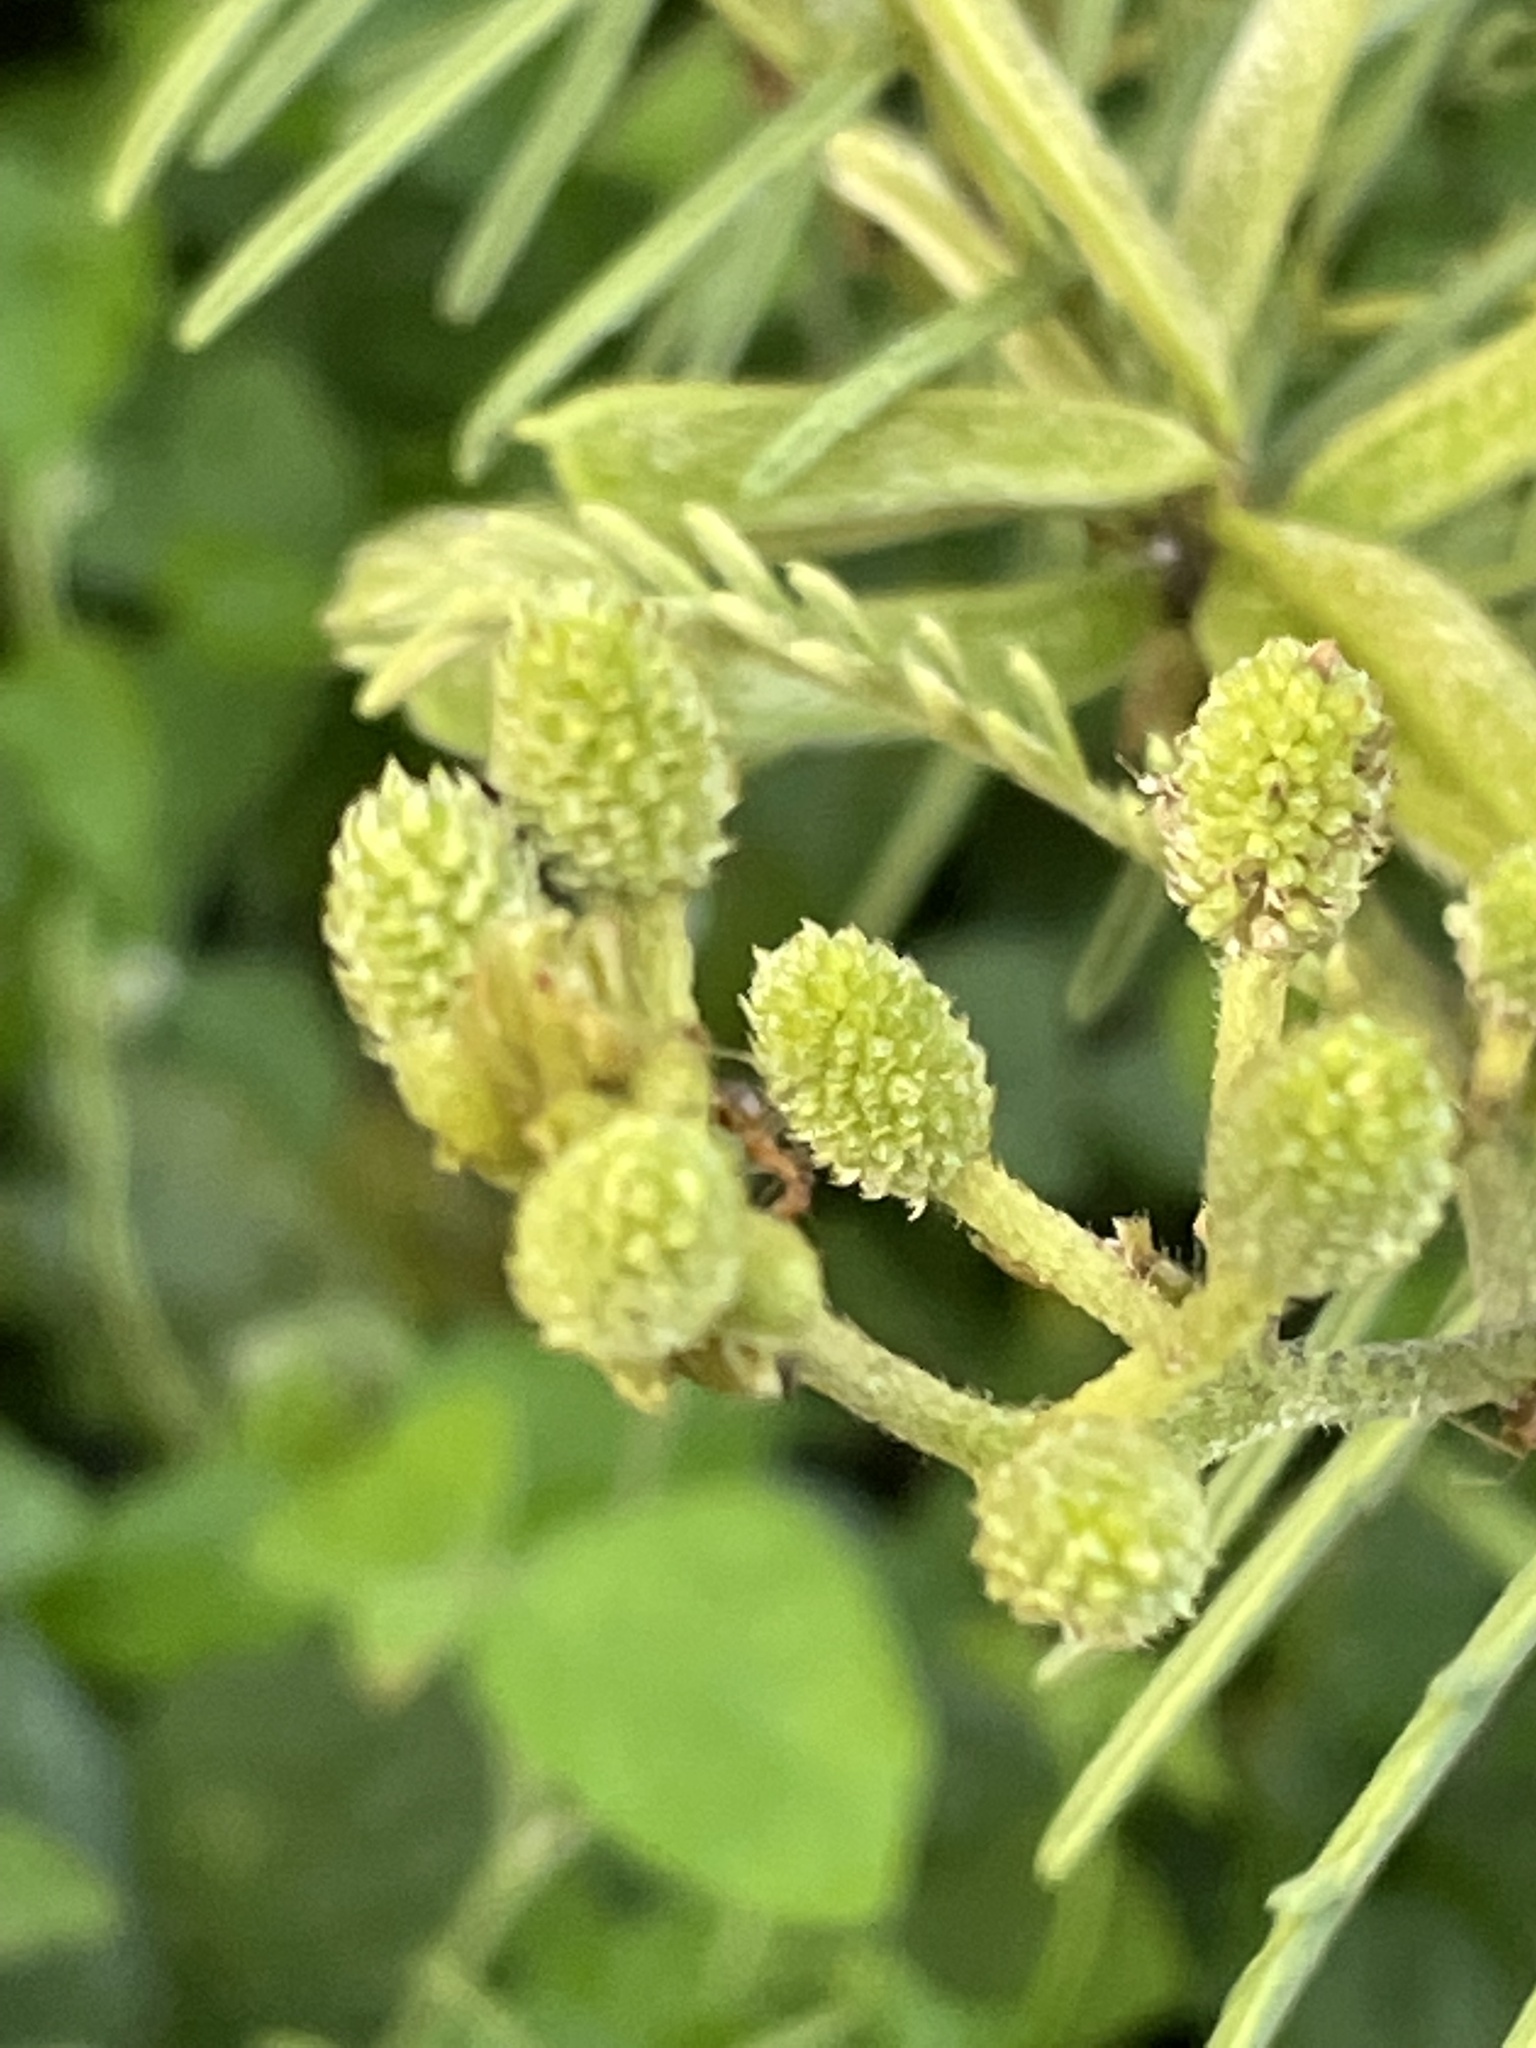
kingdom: Plantae
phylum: Tracheophyta
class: Magnoliopsida
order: Fabales
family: Fabaceae
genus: Mimosa
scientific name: Mimosa pigra
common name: Black mimosa
